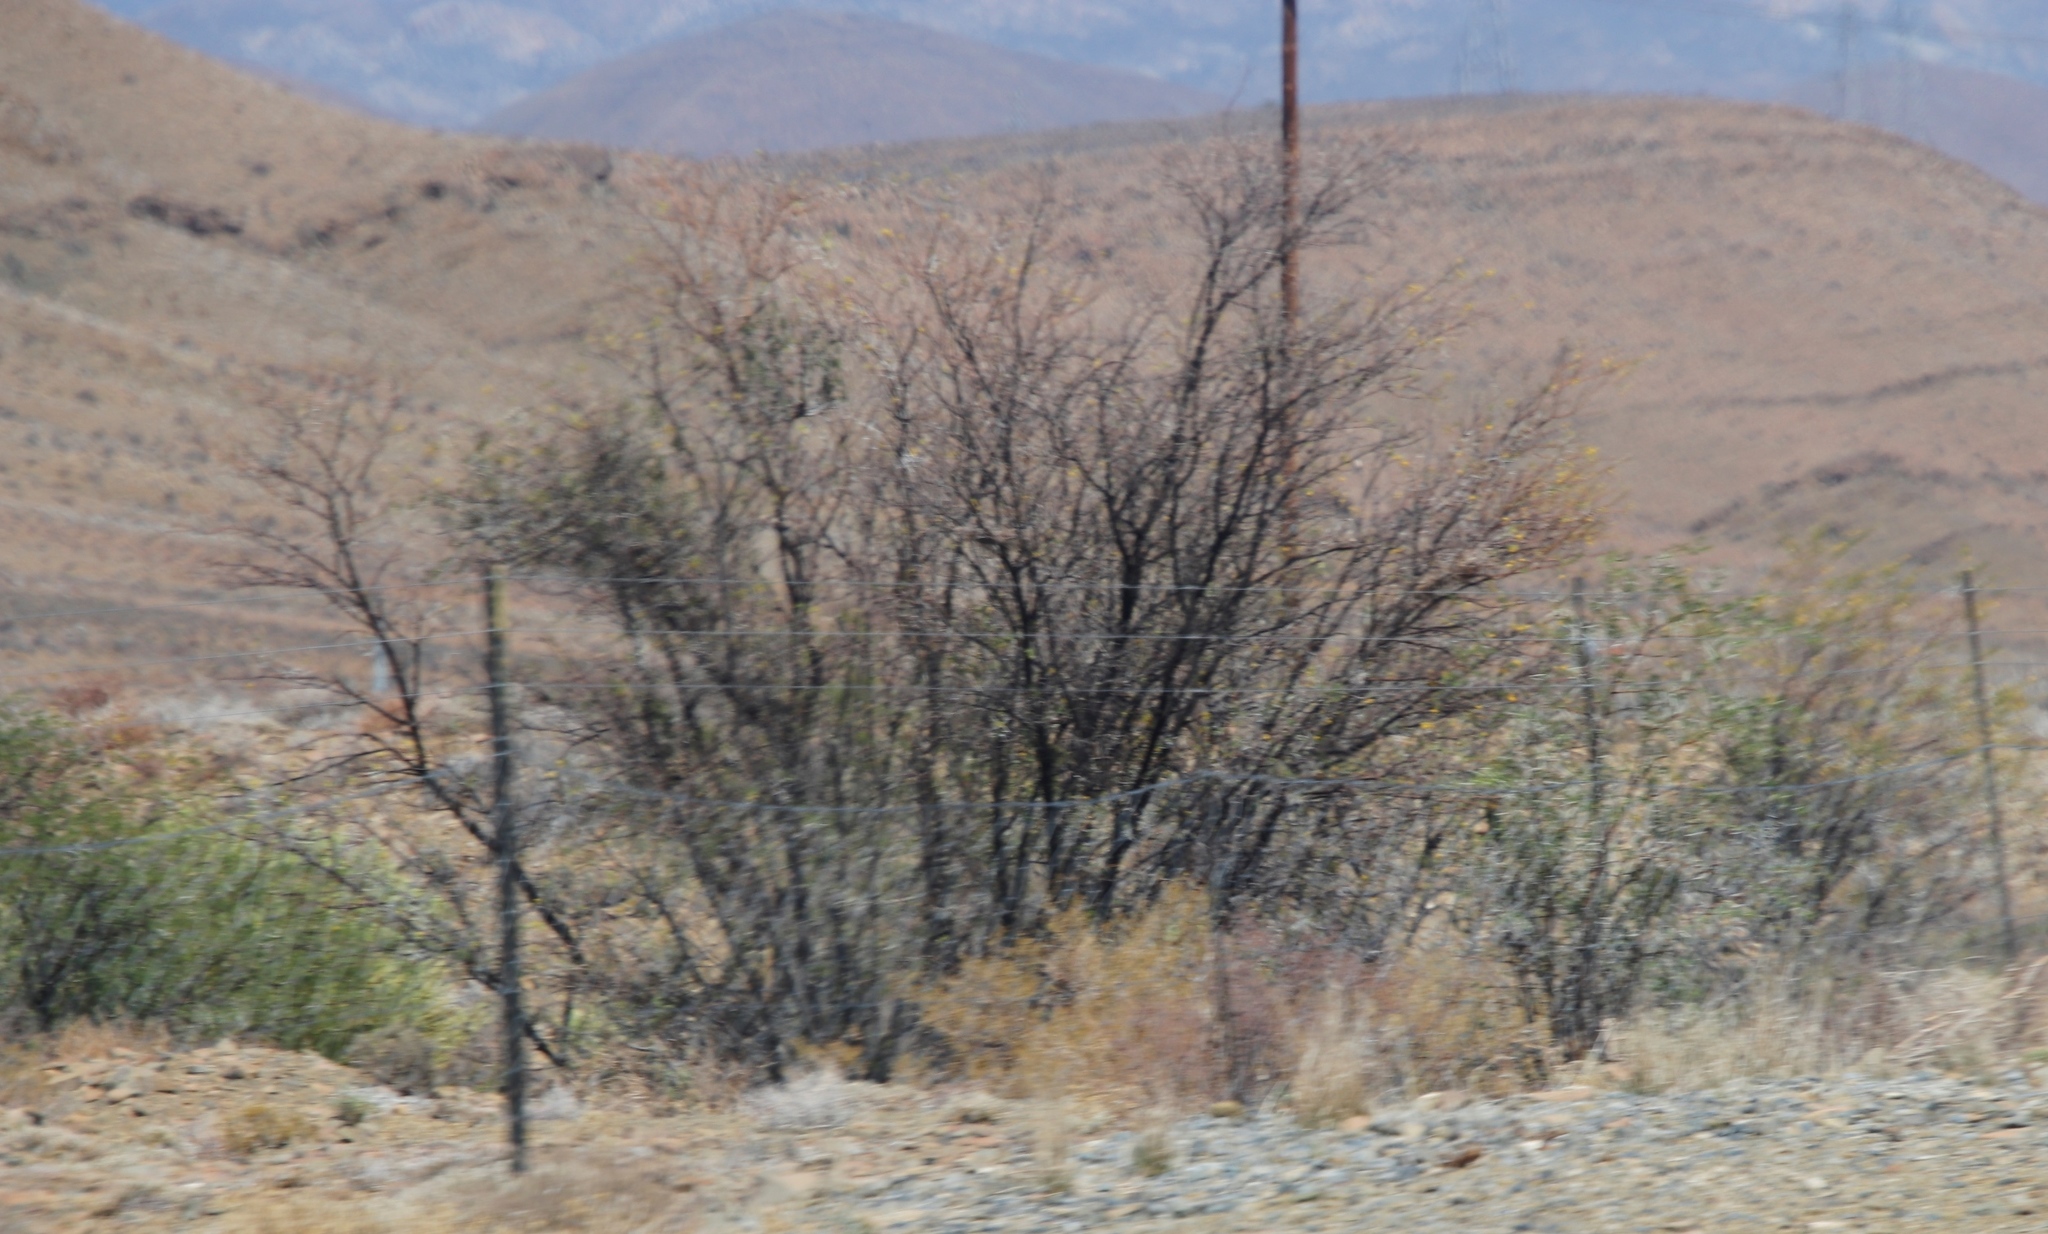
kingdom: Plantae
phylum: Tracheophyta
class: Magnoliopsida
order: Fabales
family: Fabaceae
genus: Vachellia
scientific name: Vachellia karroo
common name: Sweet thorn
